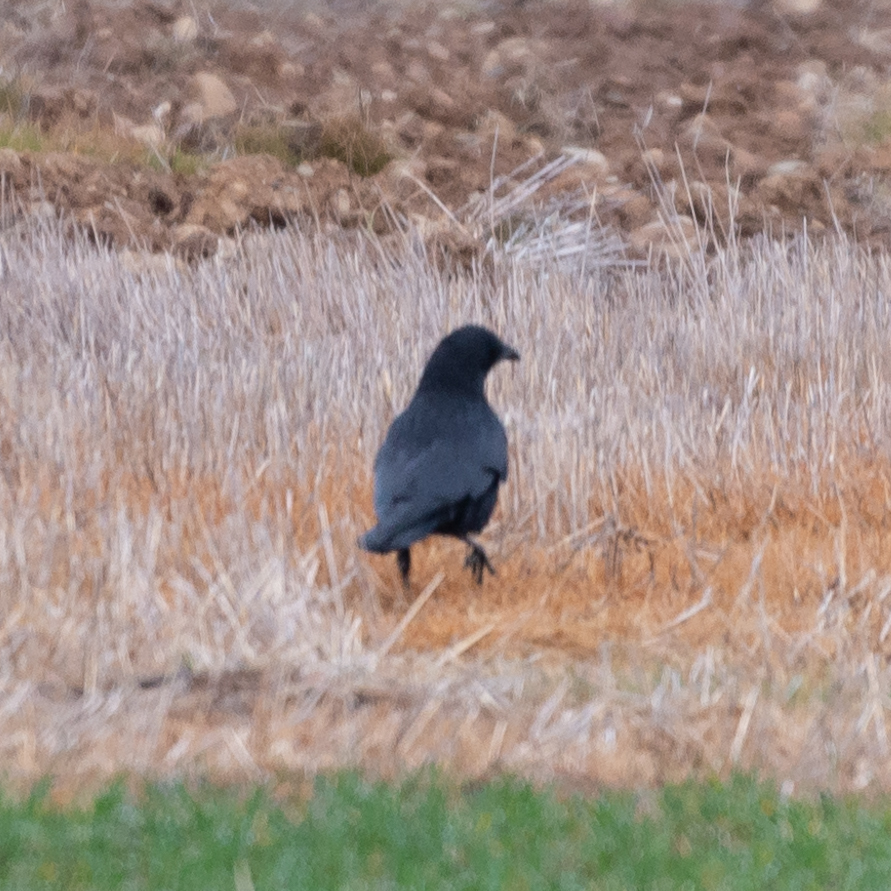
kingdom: Animalia
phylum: Chordata
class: Aves
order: Passeriformes
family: Corvidae
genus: Corvus
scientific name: Corvus corone
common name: Carrion crow
